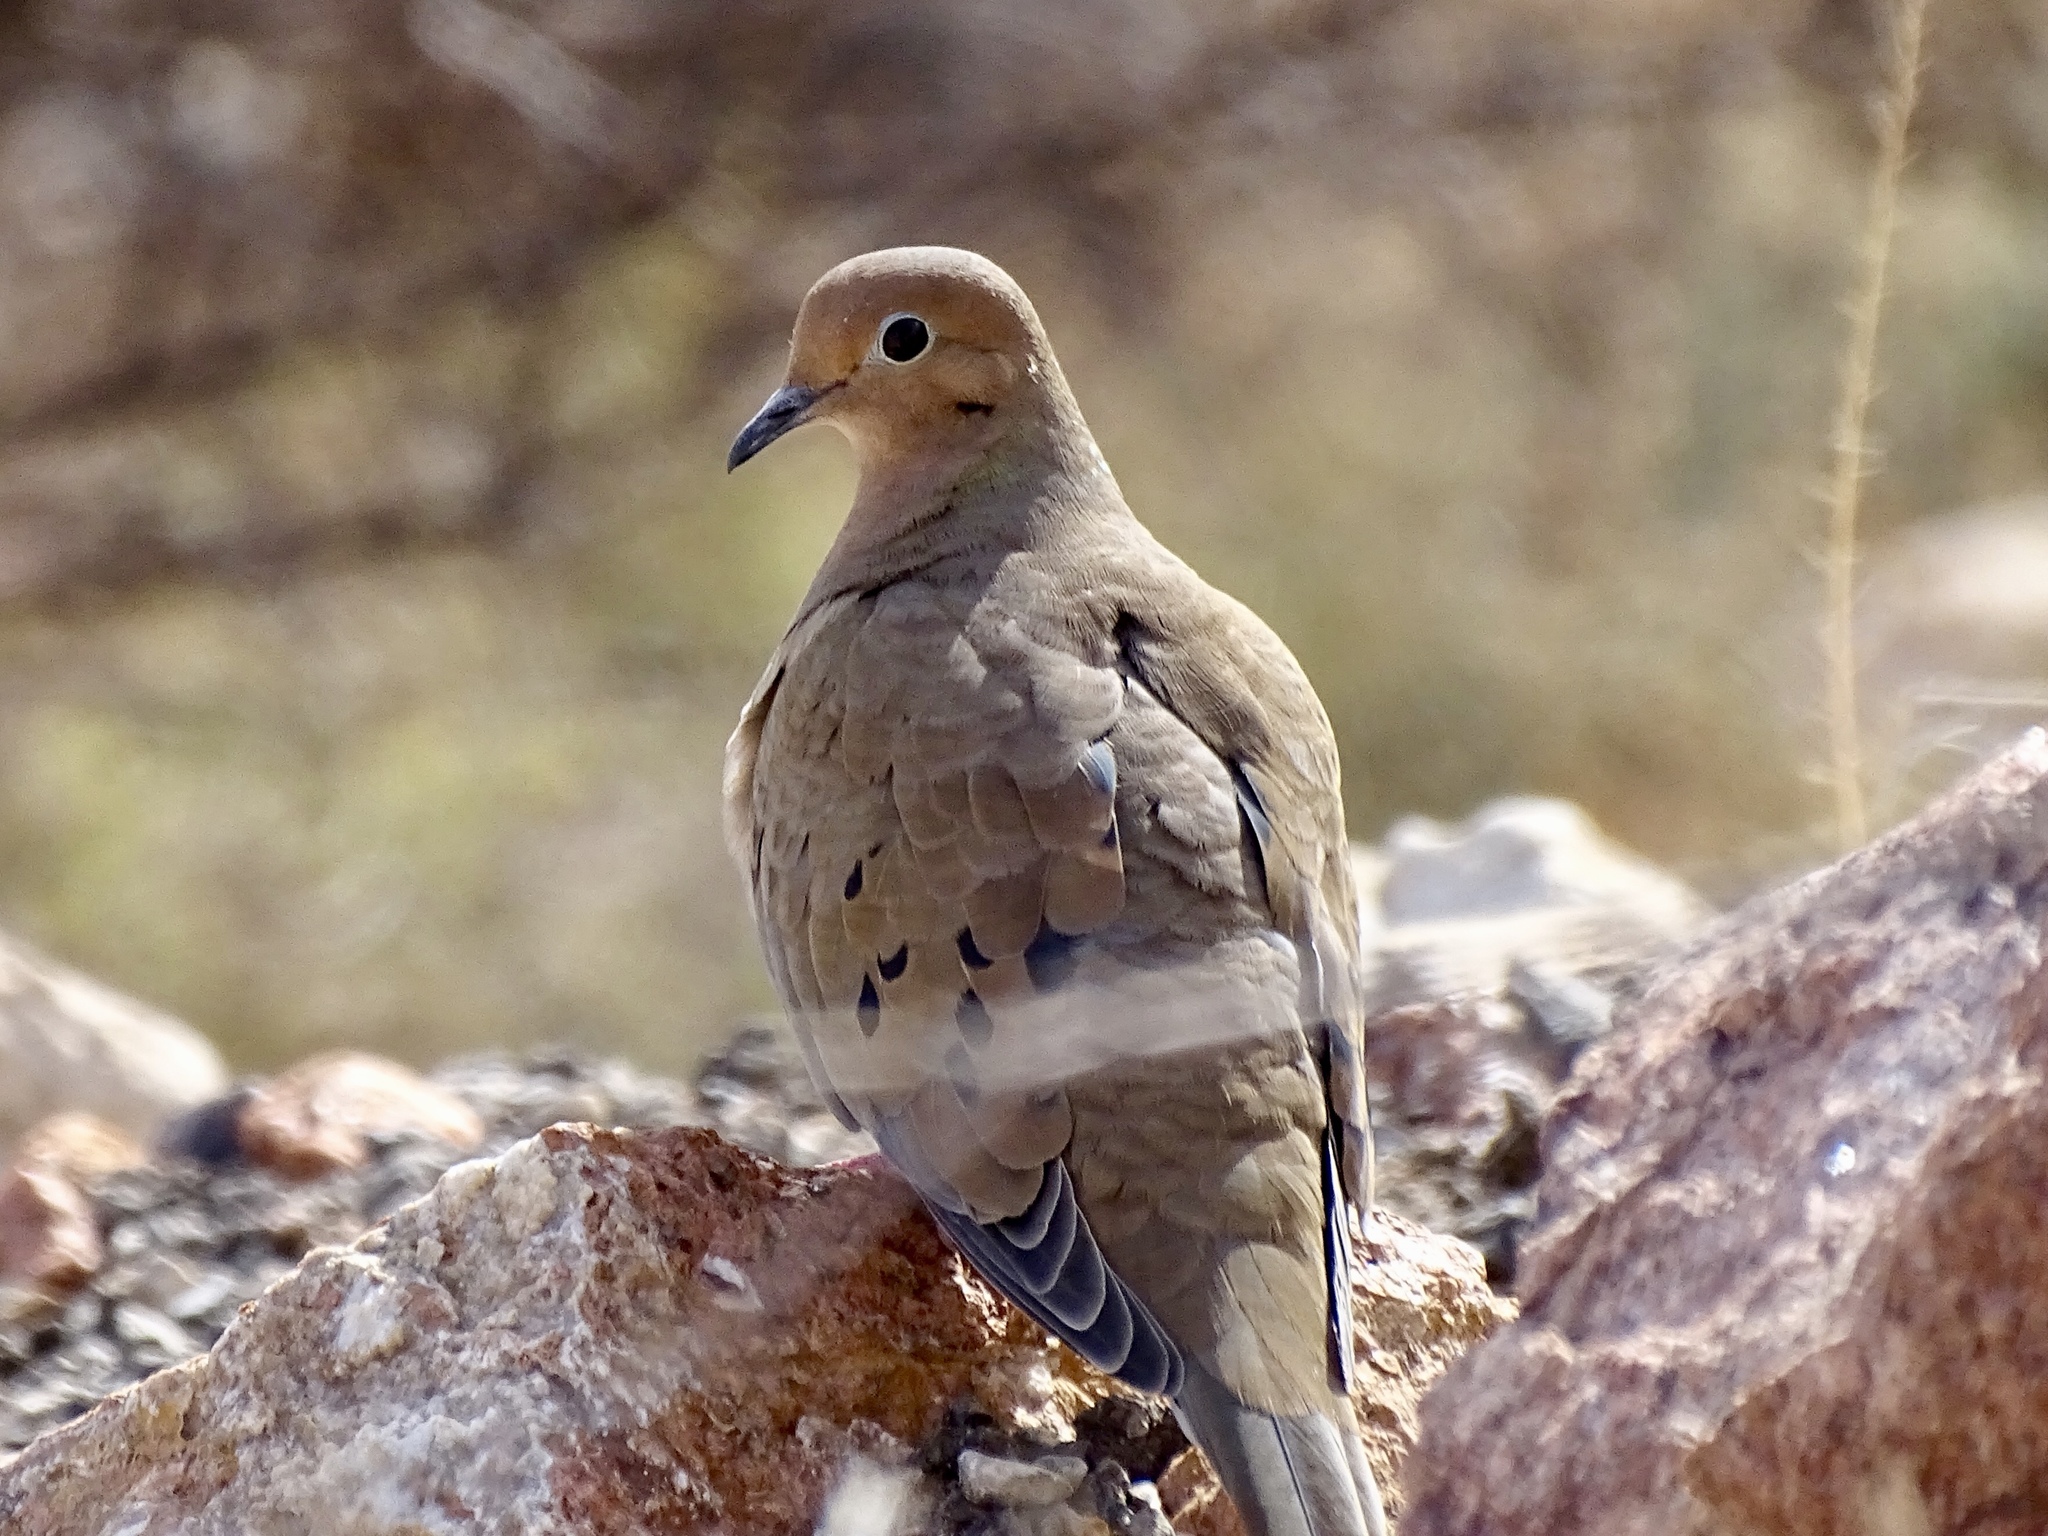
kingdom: Animalia
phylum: Chordata
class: Aves
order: Columbiformes
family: Columbidae
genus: Zenaida
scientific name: Zenaida macroura
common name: Mourning dove
